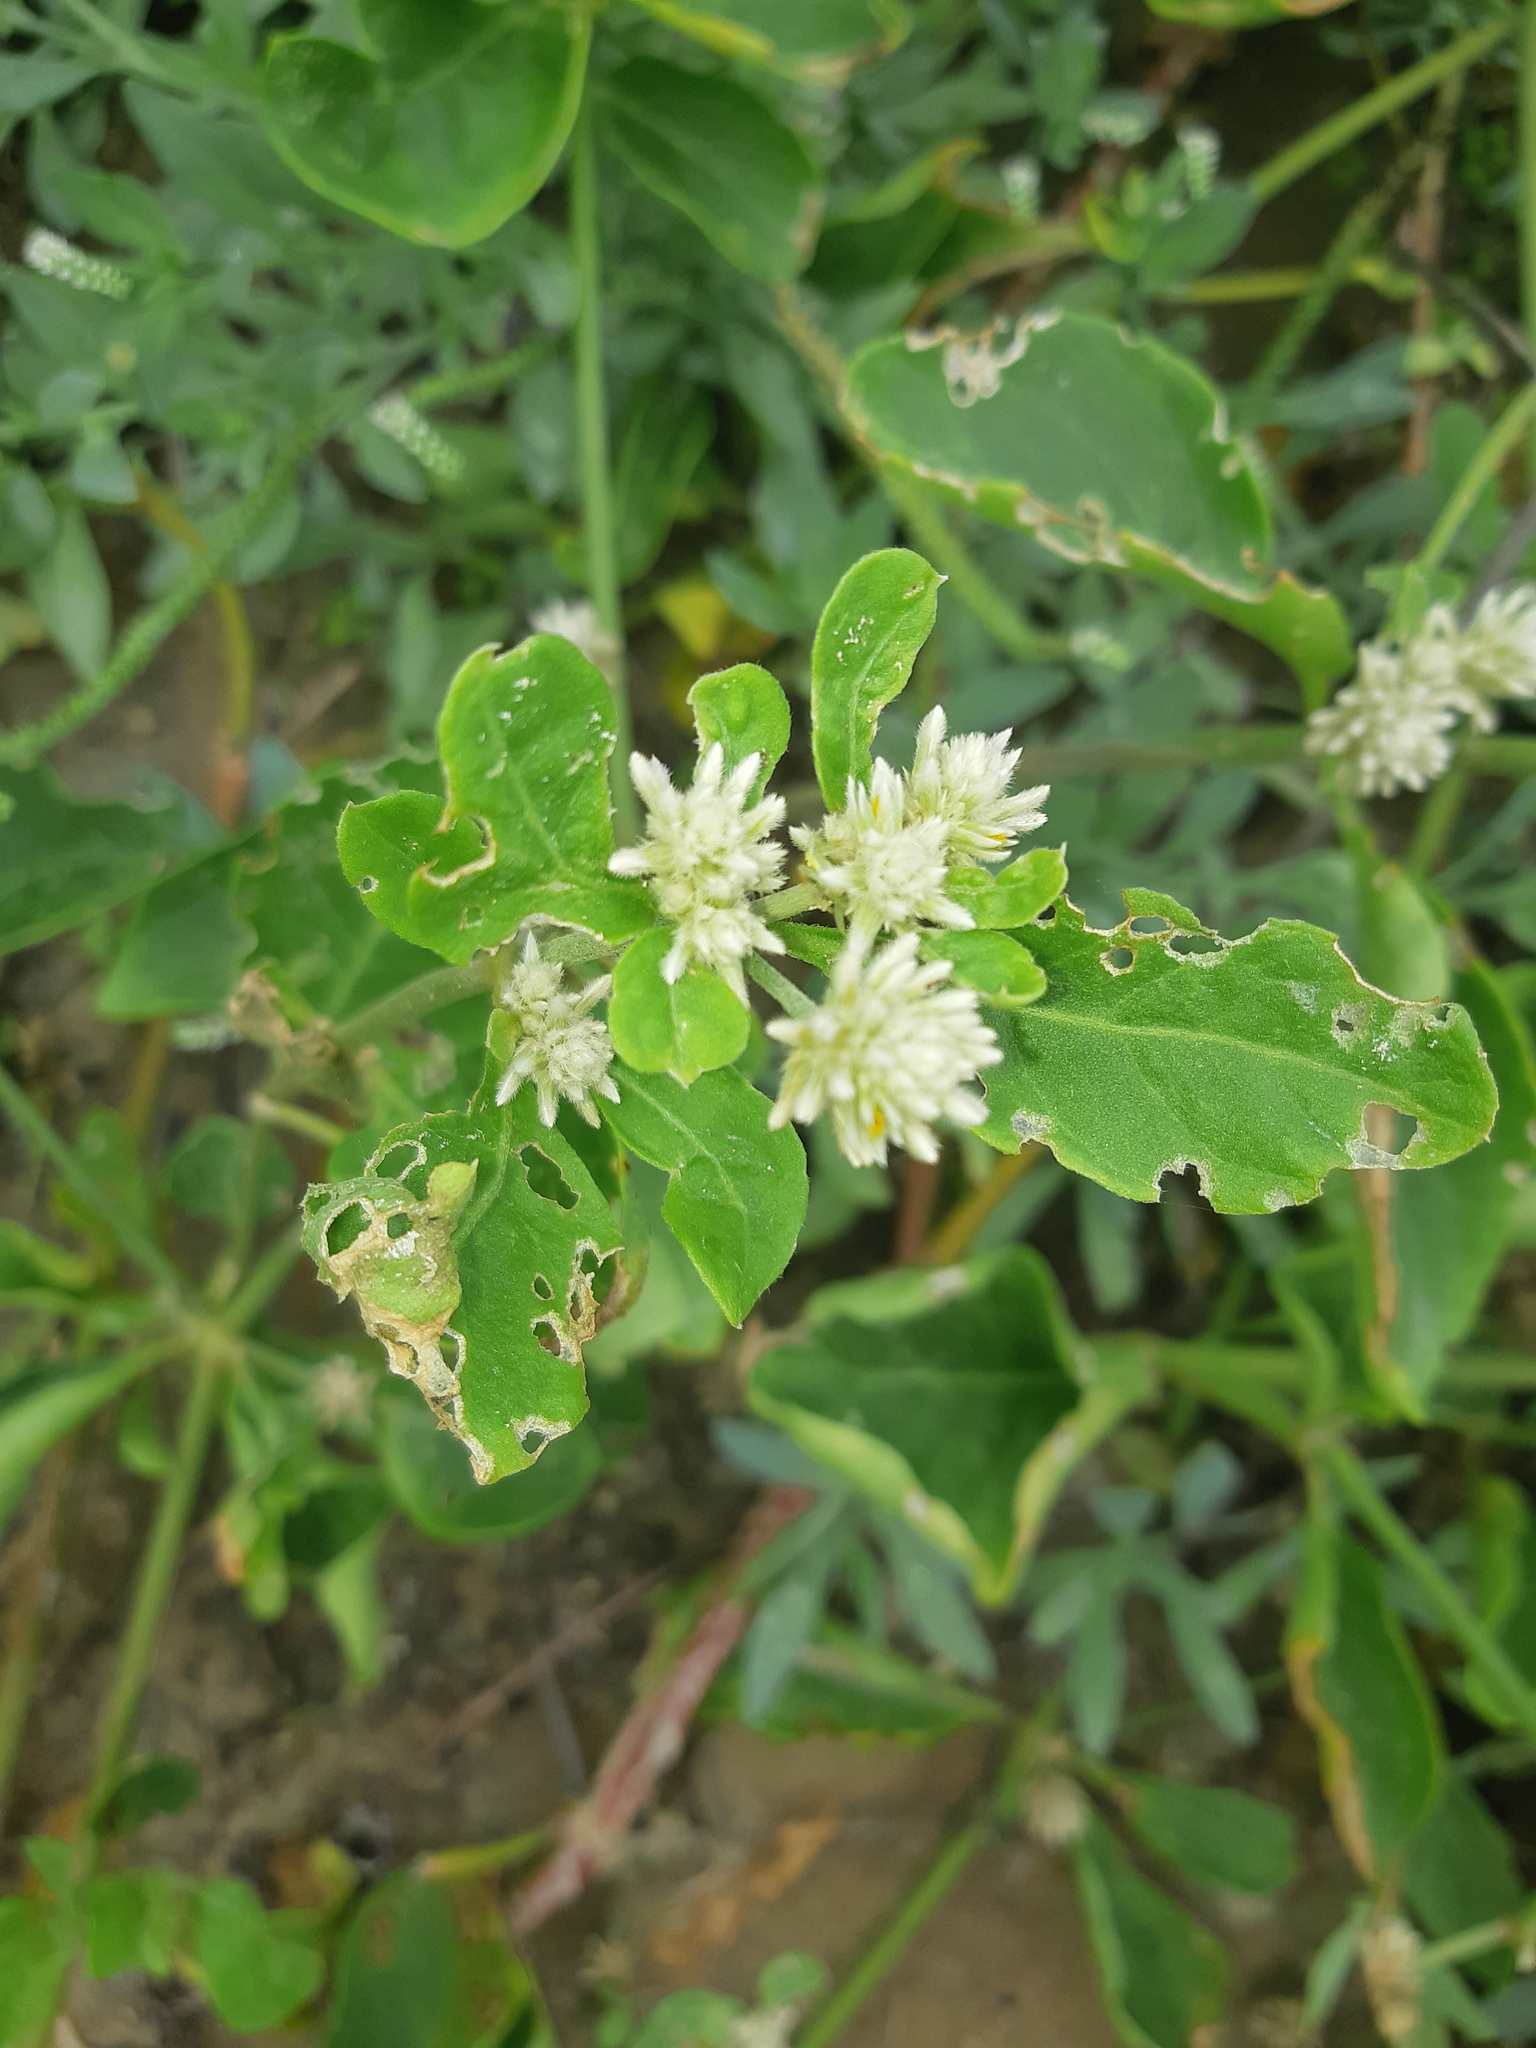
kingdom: Plantae
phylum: Tracheophyta
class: Magnoliopsida
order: Caryophyllales
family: Amaranthaceae
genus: Alternanthera
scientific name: Alternanthera pubiflora
